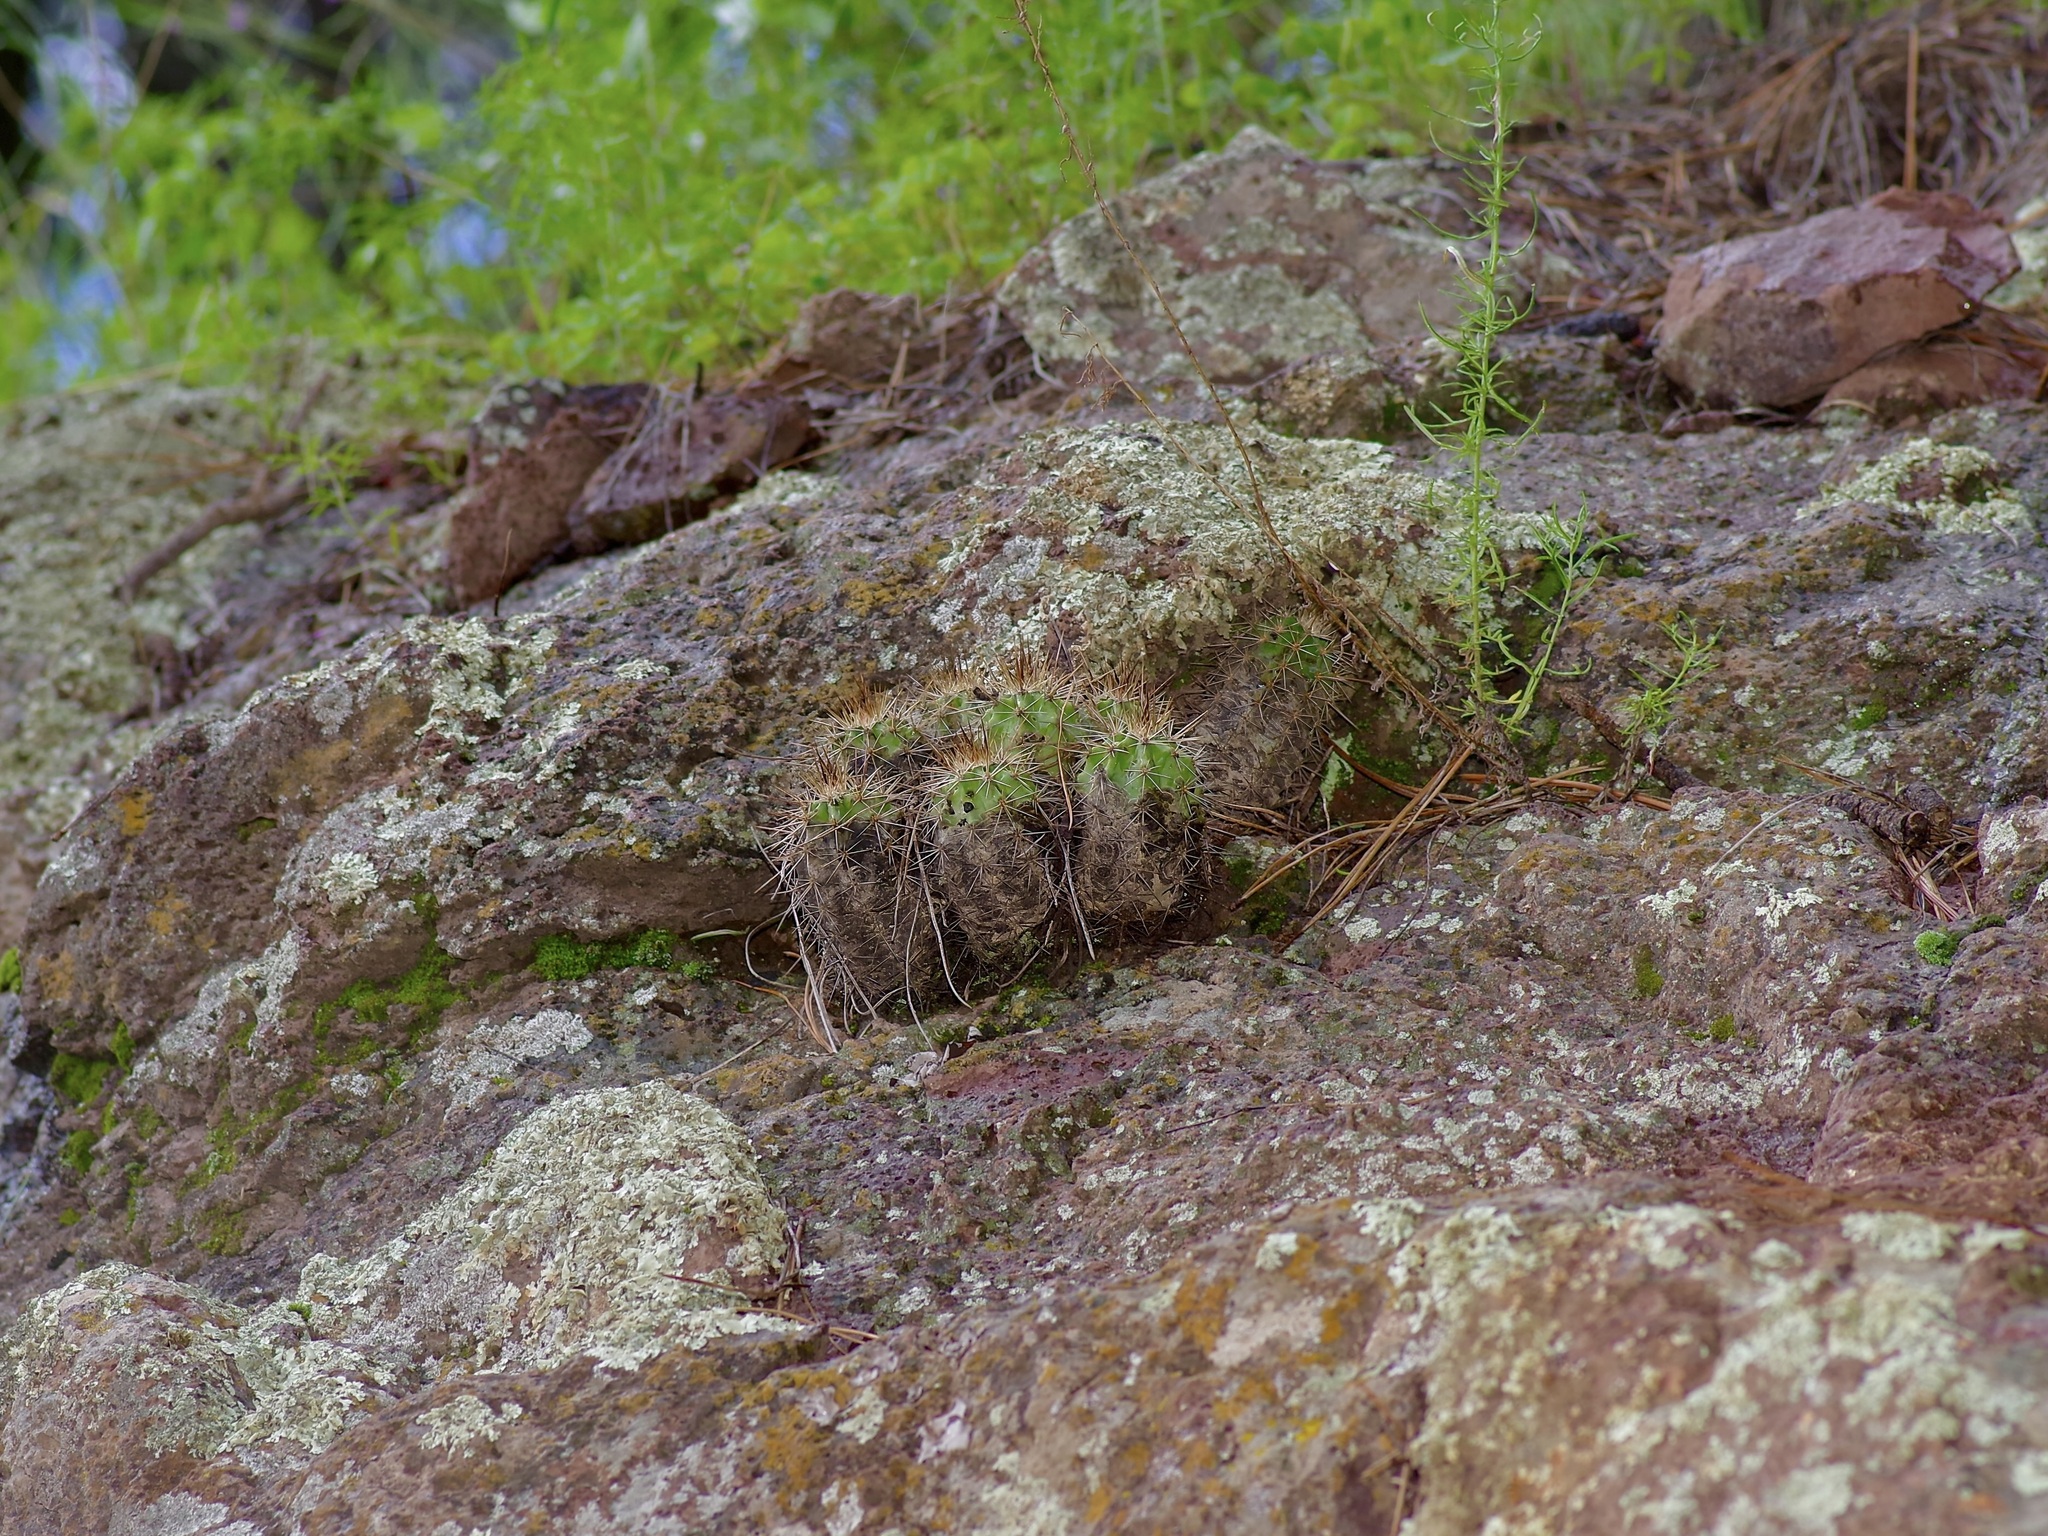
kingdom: Plantae
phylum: Tracheophyta
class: Magnoliopsida
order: Caryophyllales
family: Cactaceae
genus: Echinocereus
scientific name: Echinocereus coccineus
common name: Scarlet hedgehog cactus
